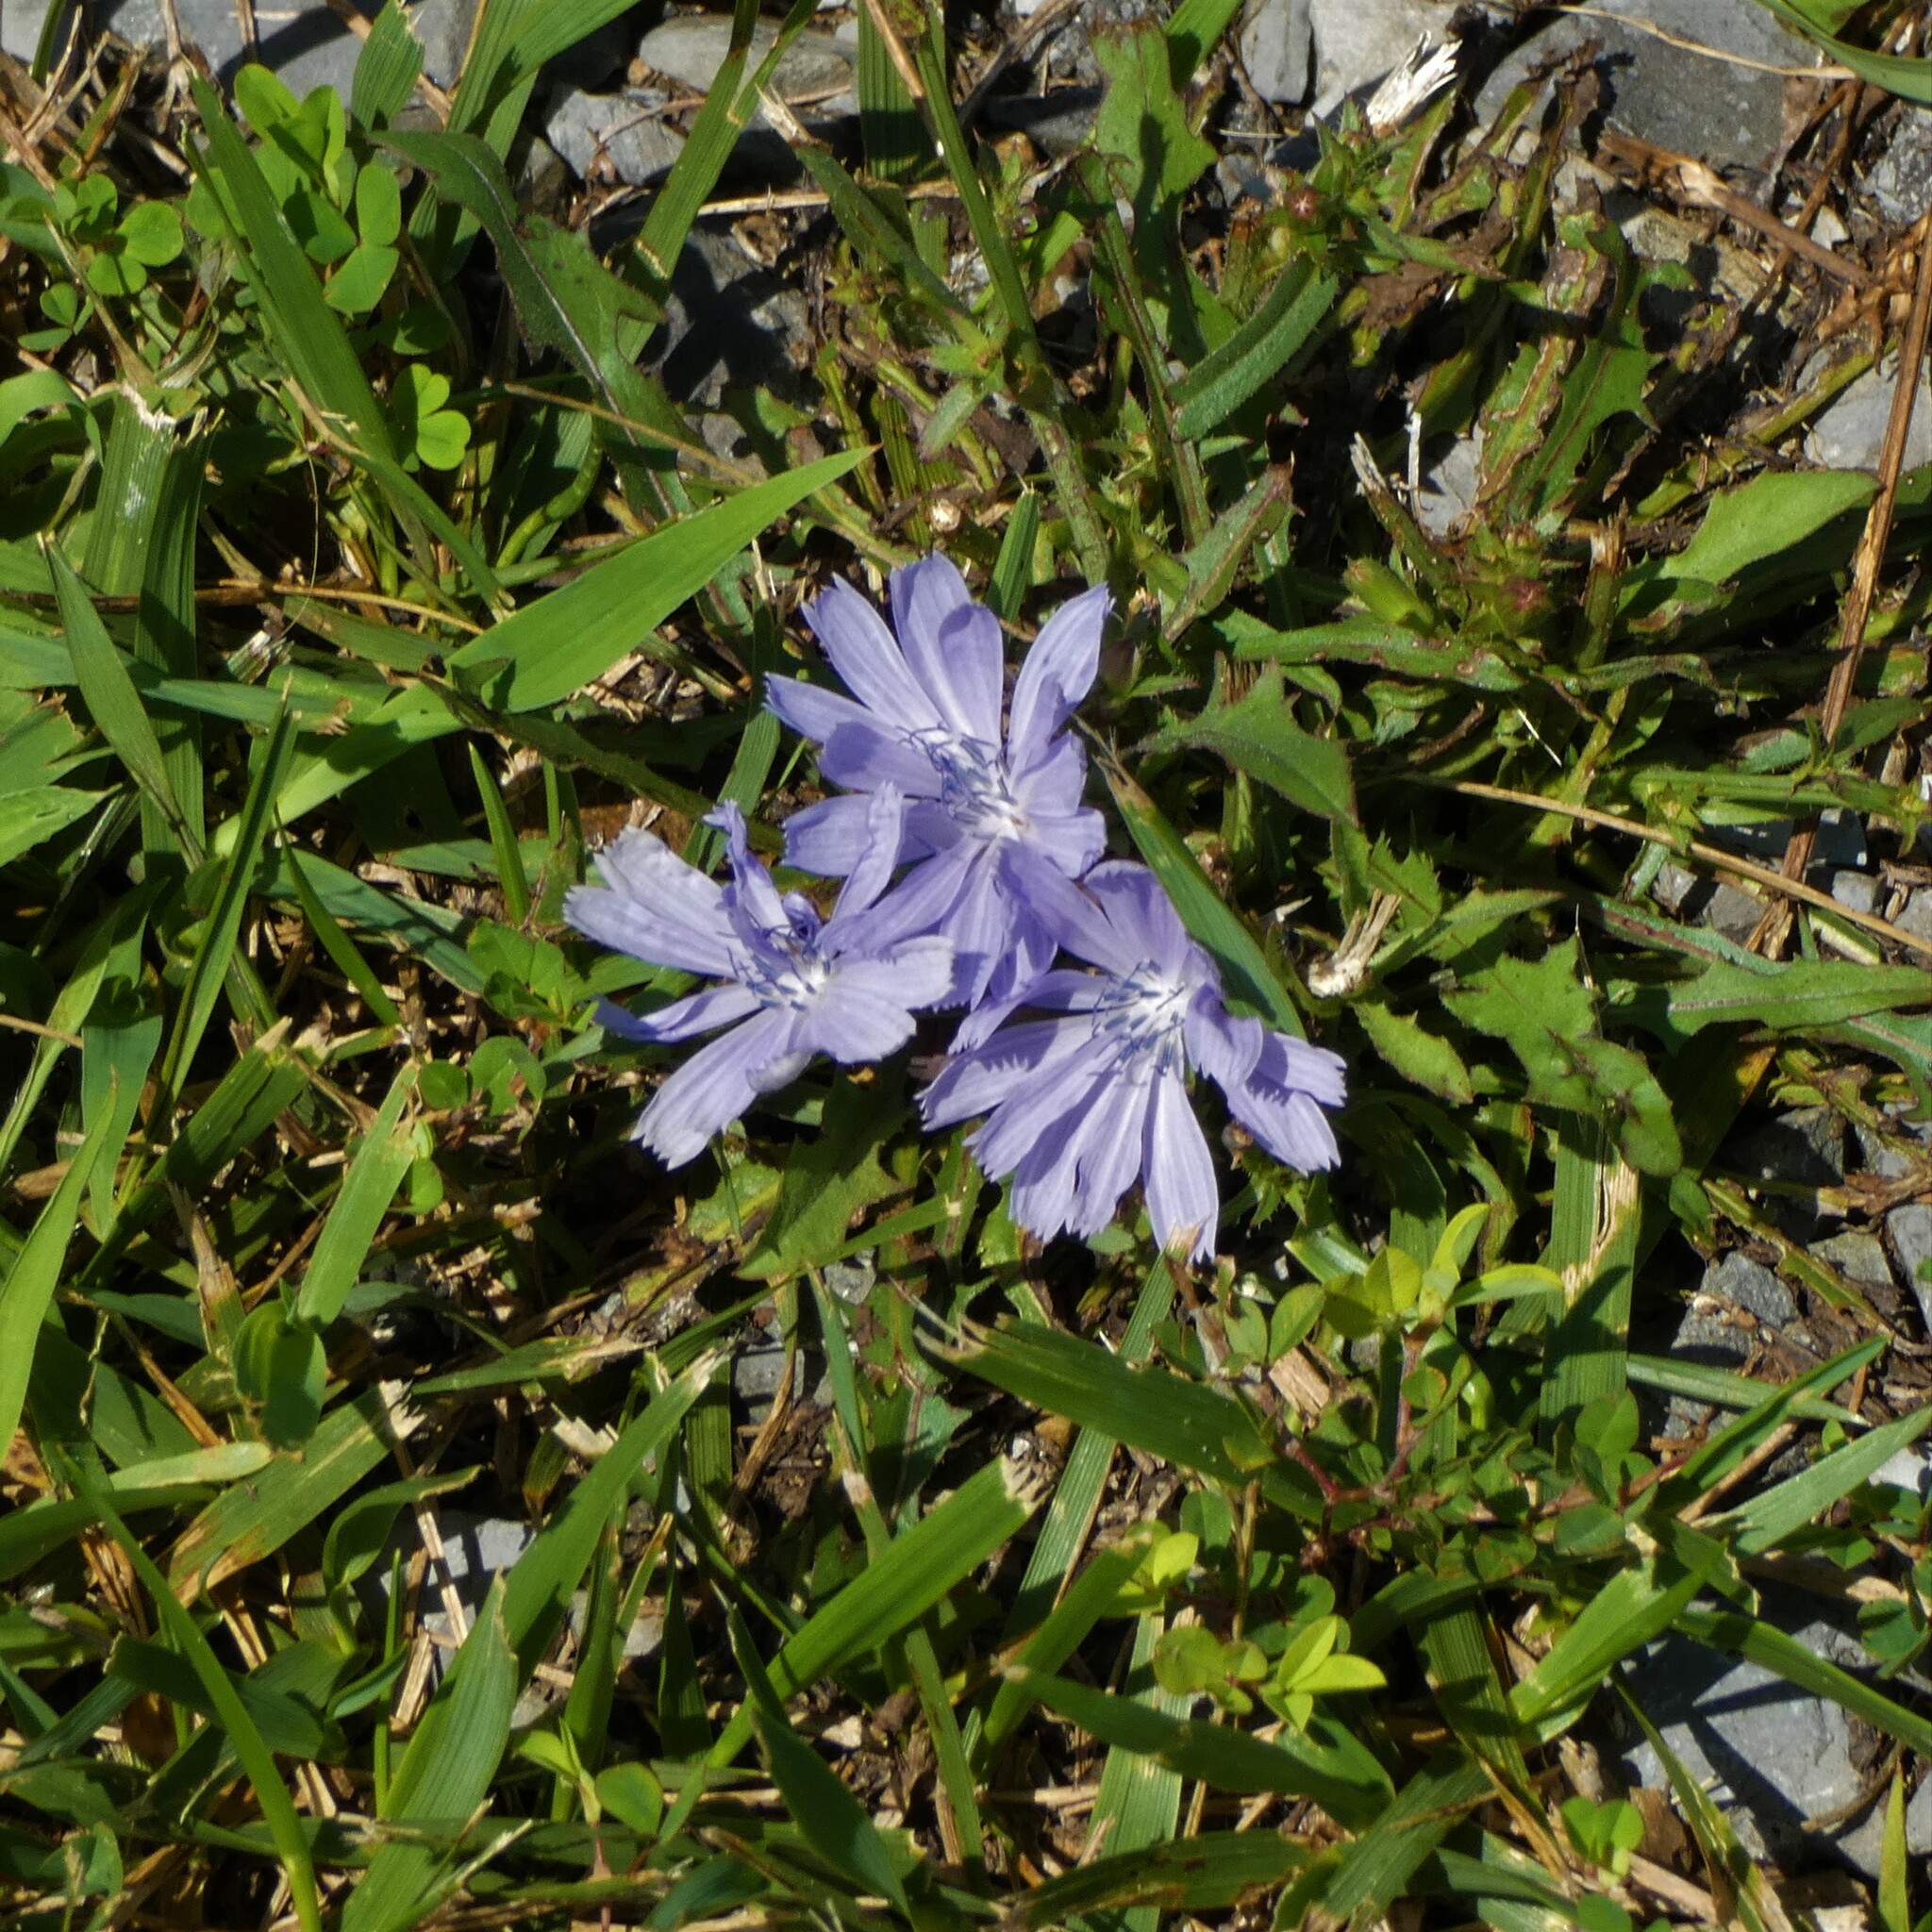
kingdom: Plantae
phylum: Tracheophyta
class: Magnoliopsida
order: Asterales
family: Asteraceae
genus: Cichorium
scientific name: Cichorium intybus
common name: Chicory
